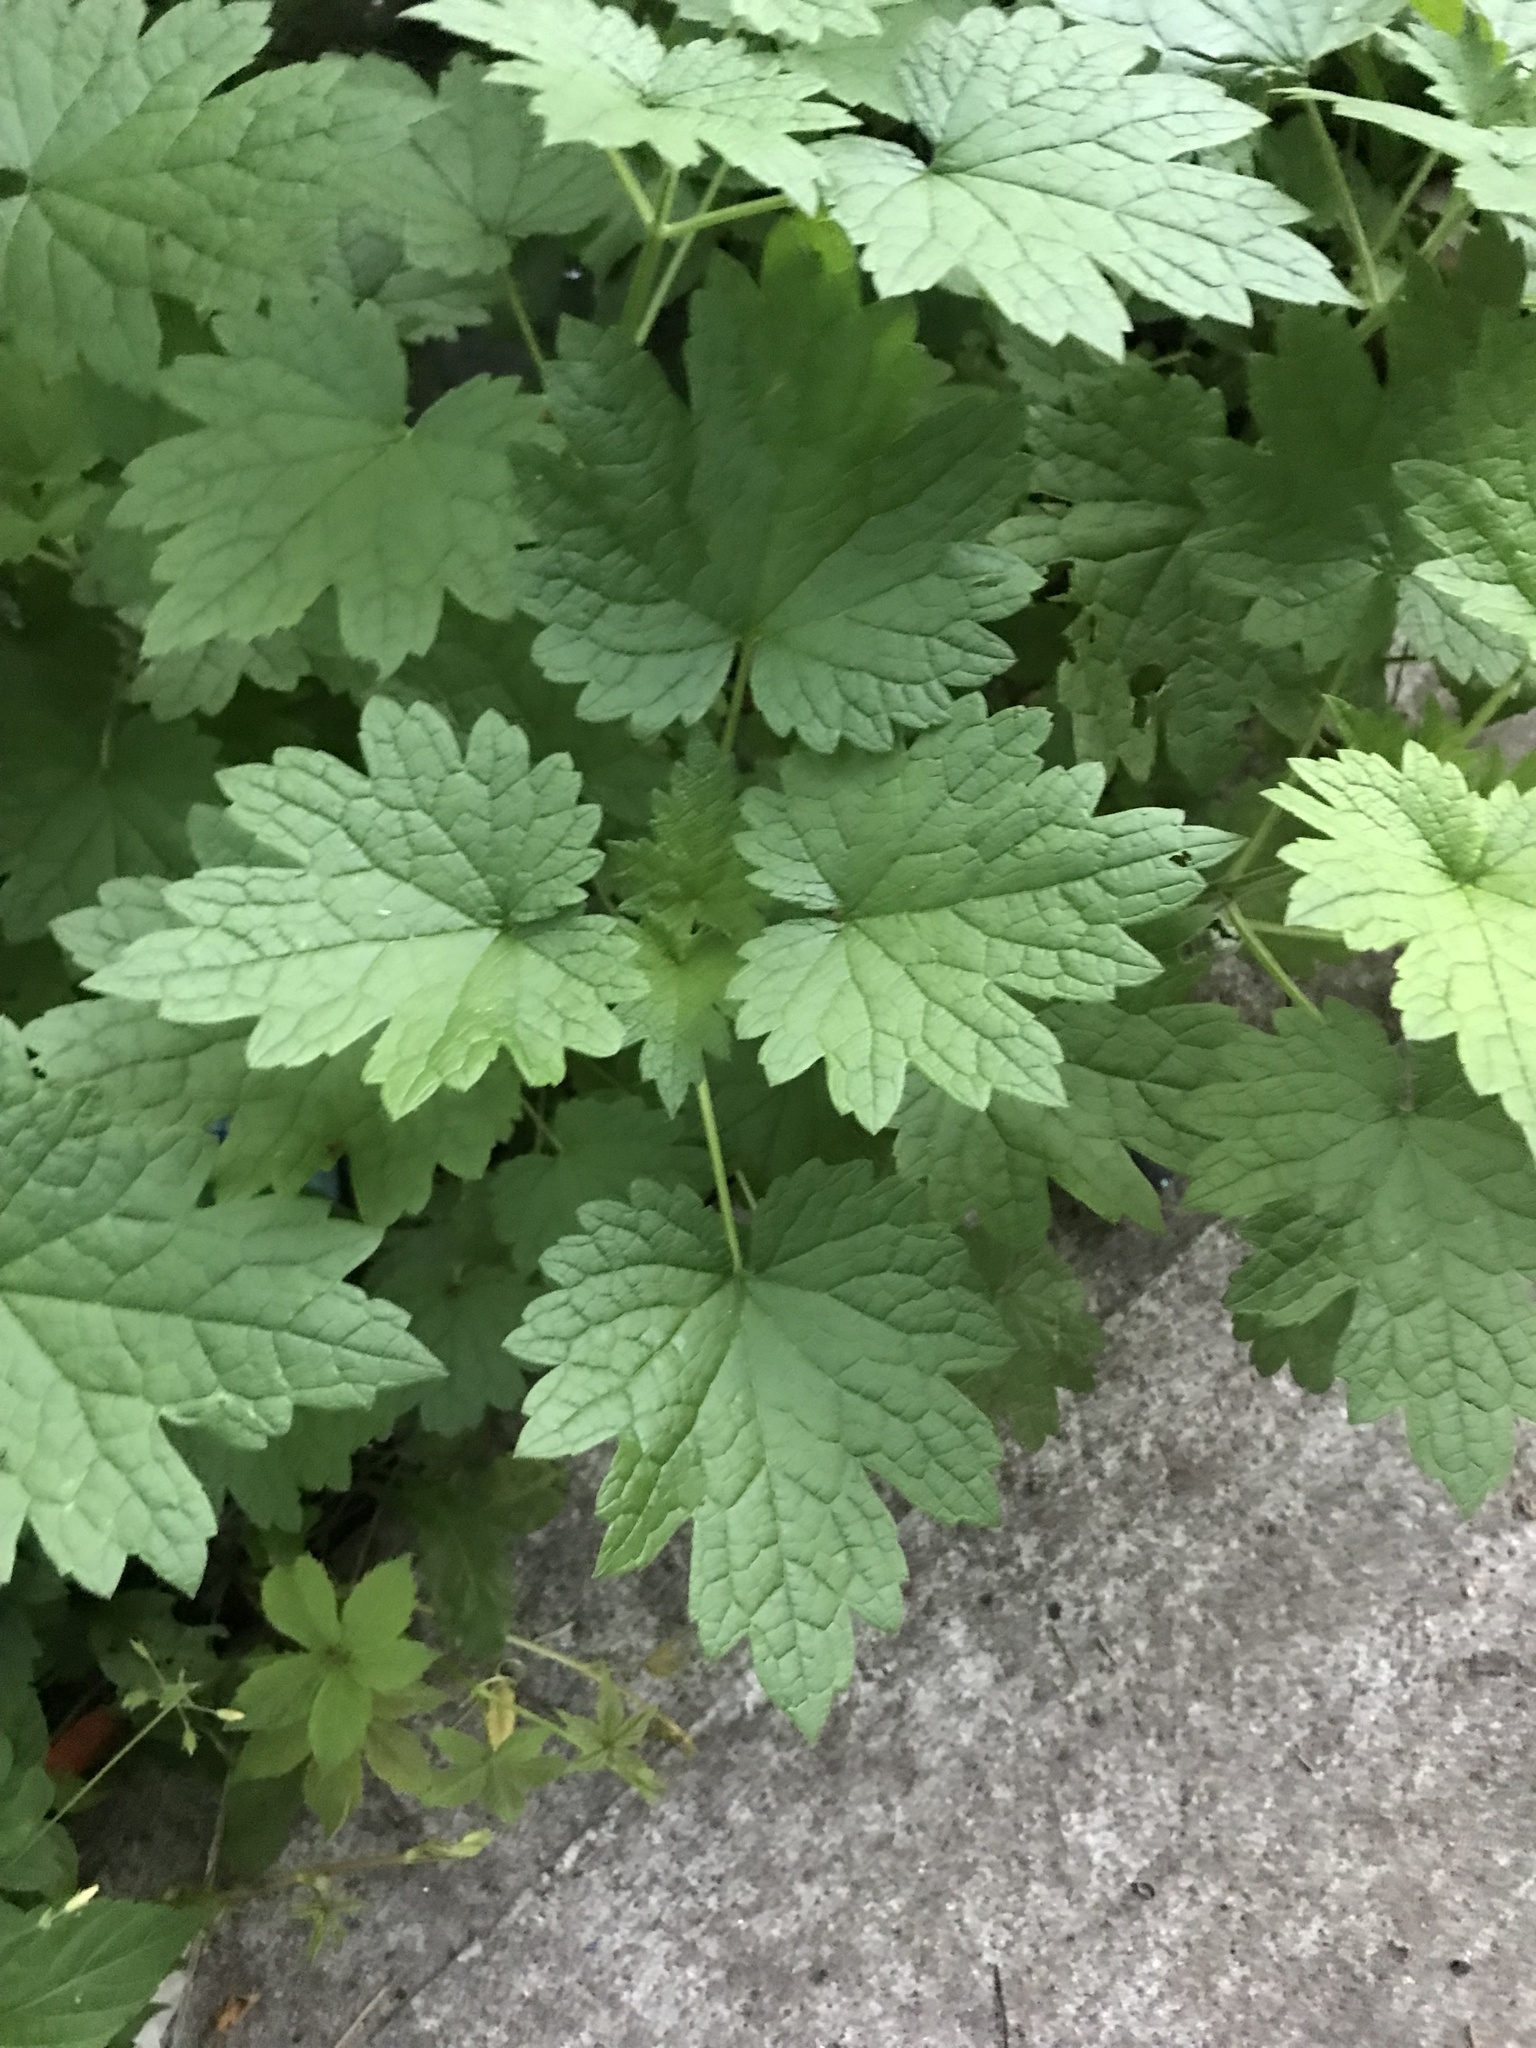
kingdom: Plantae
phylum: Tracheophyta
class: Magnoliopsida
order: Lamiales
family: Lamiaceae
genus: Leonurus
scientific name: Leonurus cardiaca
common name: Motherwort
